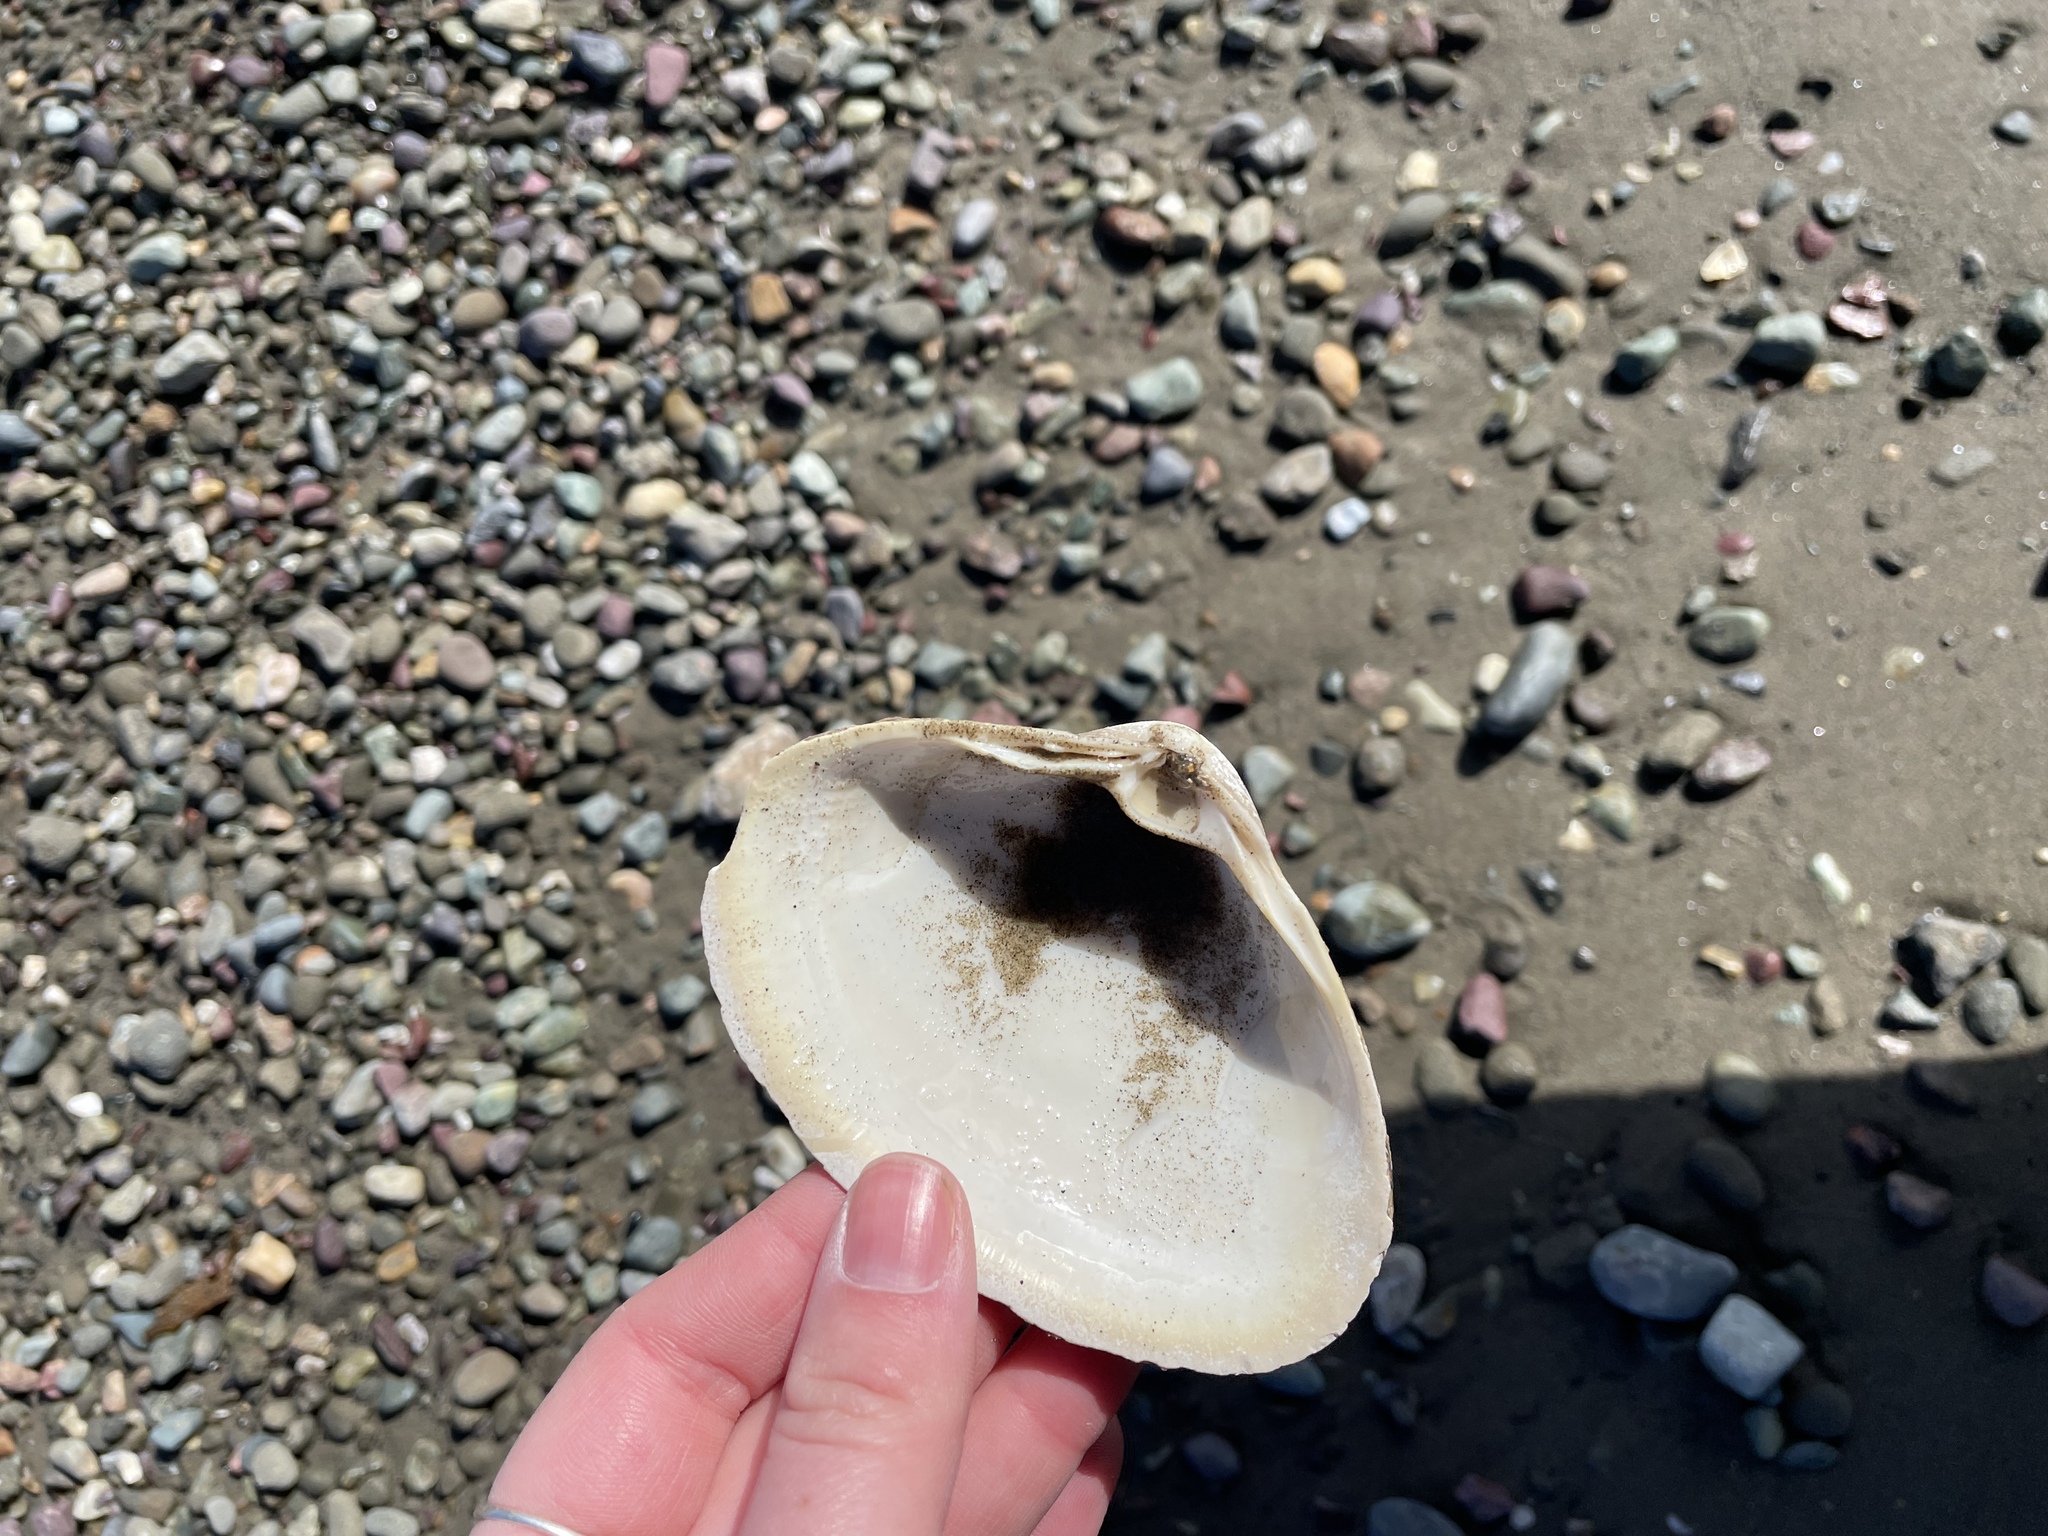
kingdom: Animalia
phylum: Mollusca
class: Bivalvia
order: Venerida
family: Mactridae
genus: Spisula
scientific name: Spisula solidissima
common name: Atlantic surf clam
